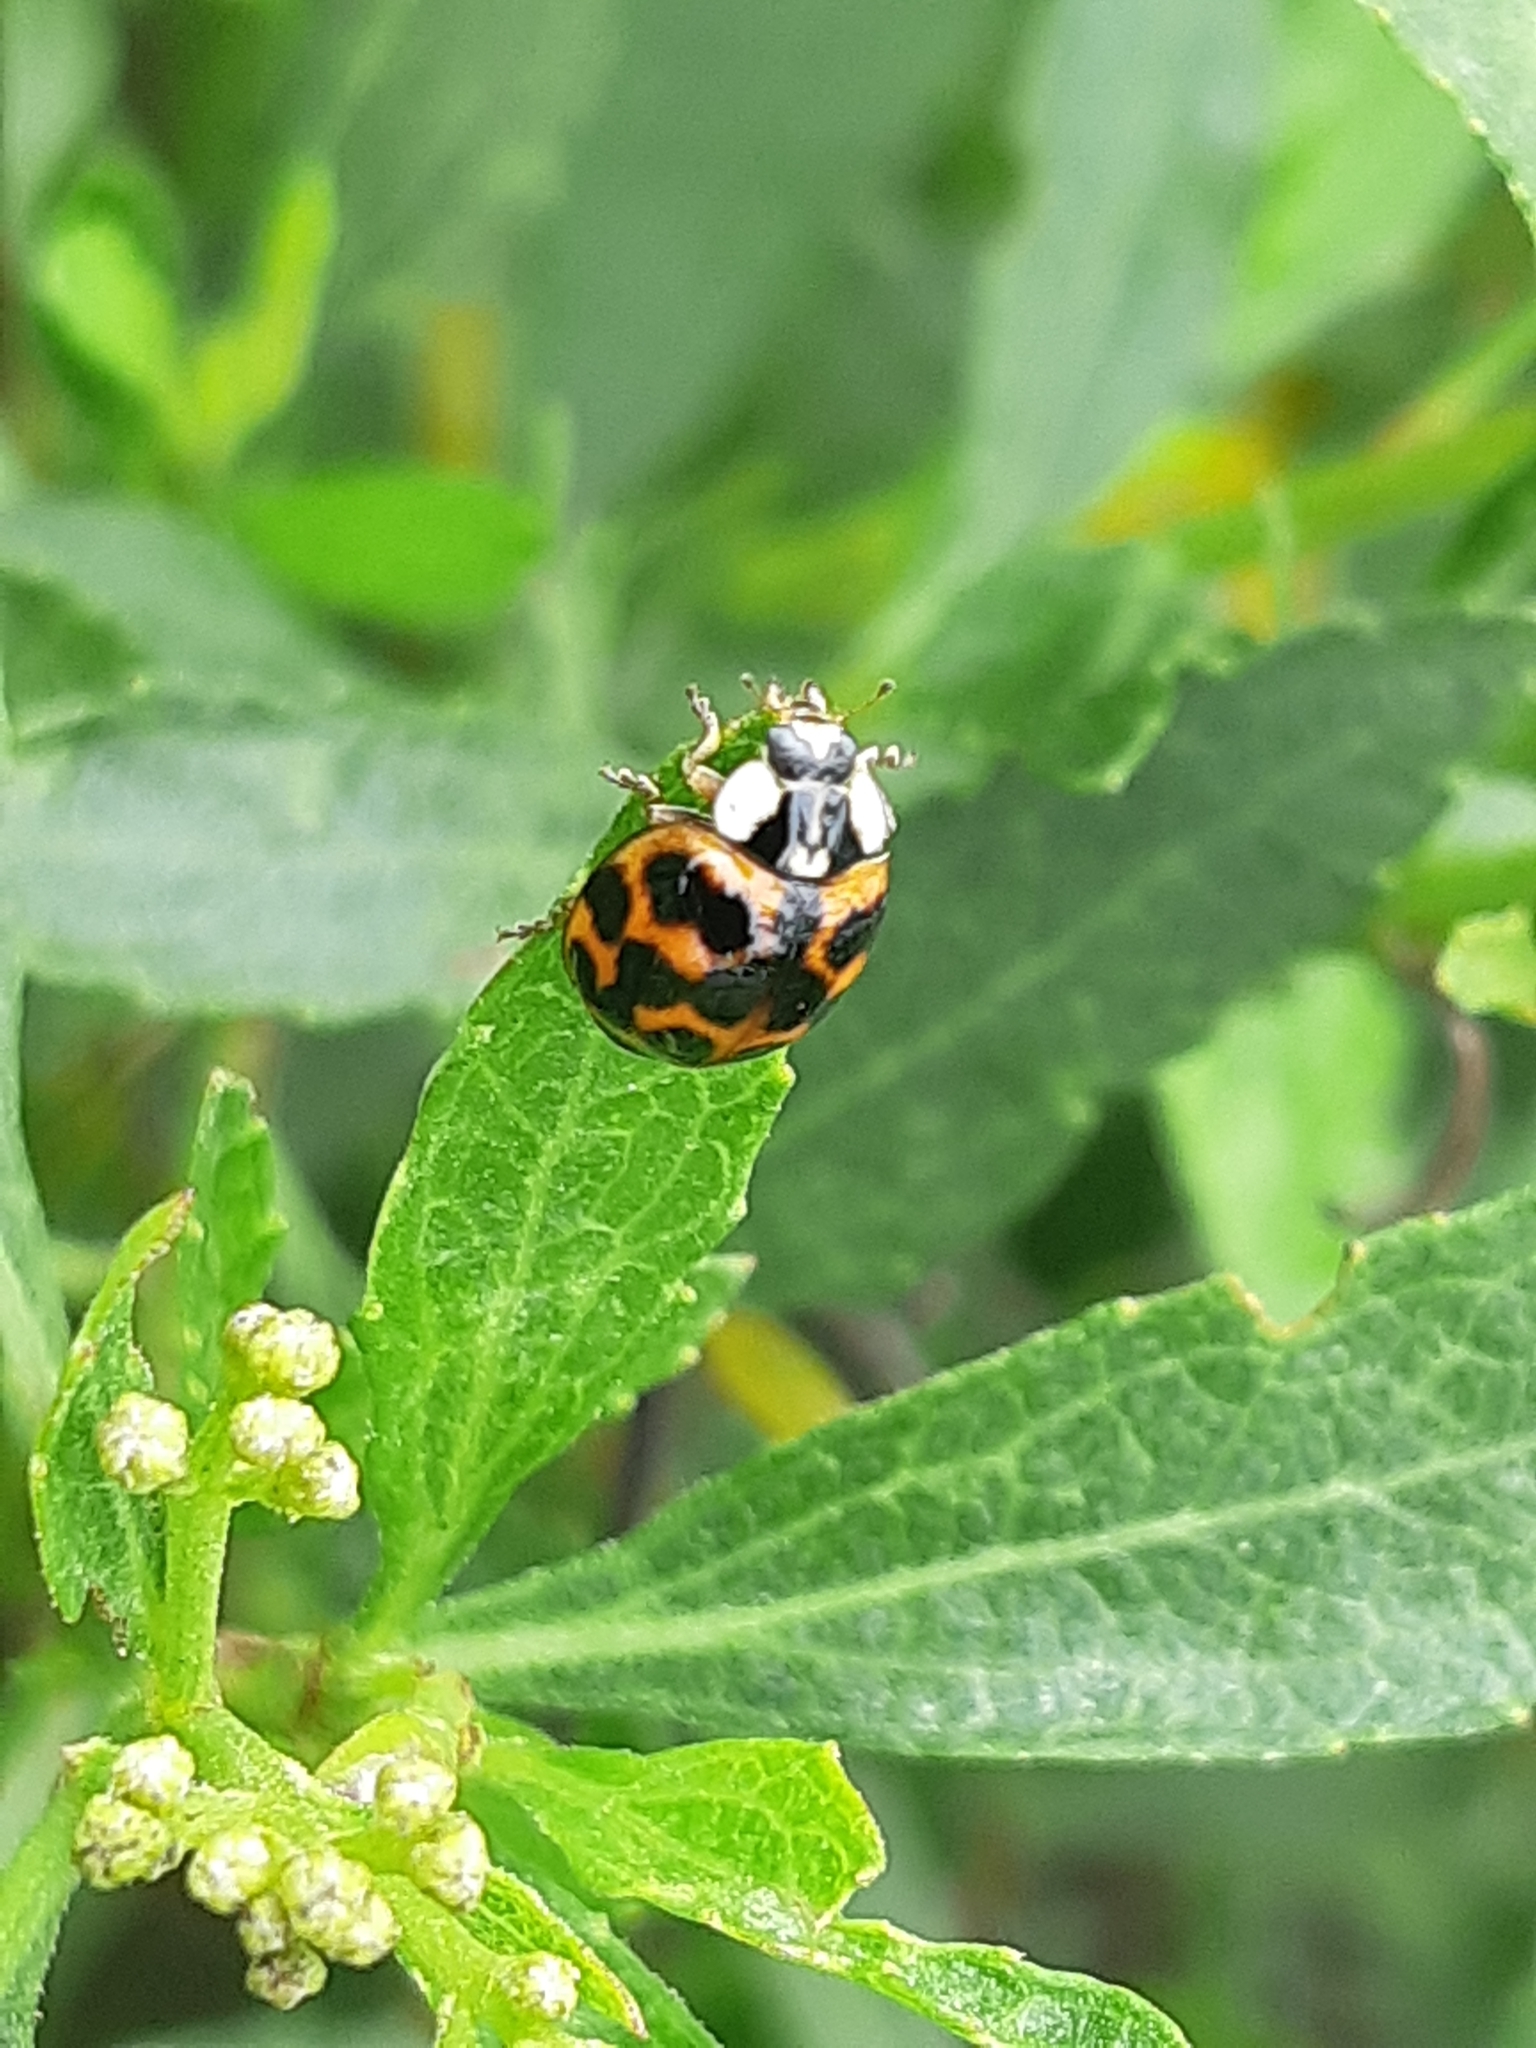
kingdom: Animalia
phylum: Arthropoda
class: Insecta
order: Coleoptera
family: Coccinellidae
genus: Harmonia
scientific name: Harmonia axyridis
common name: Harlequin ladybird
